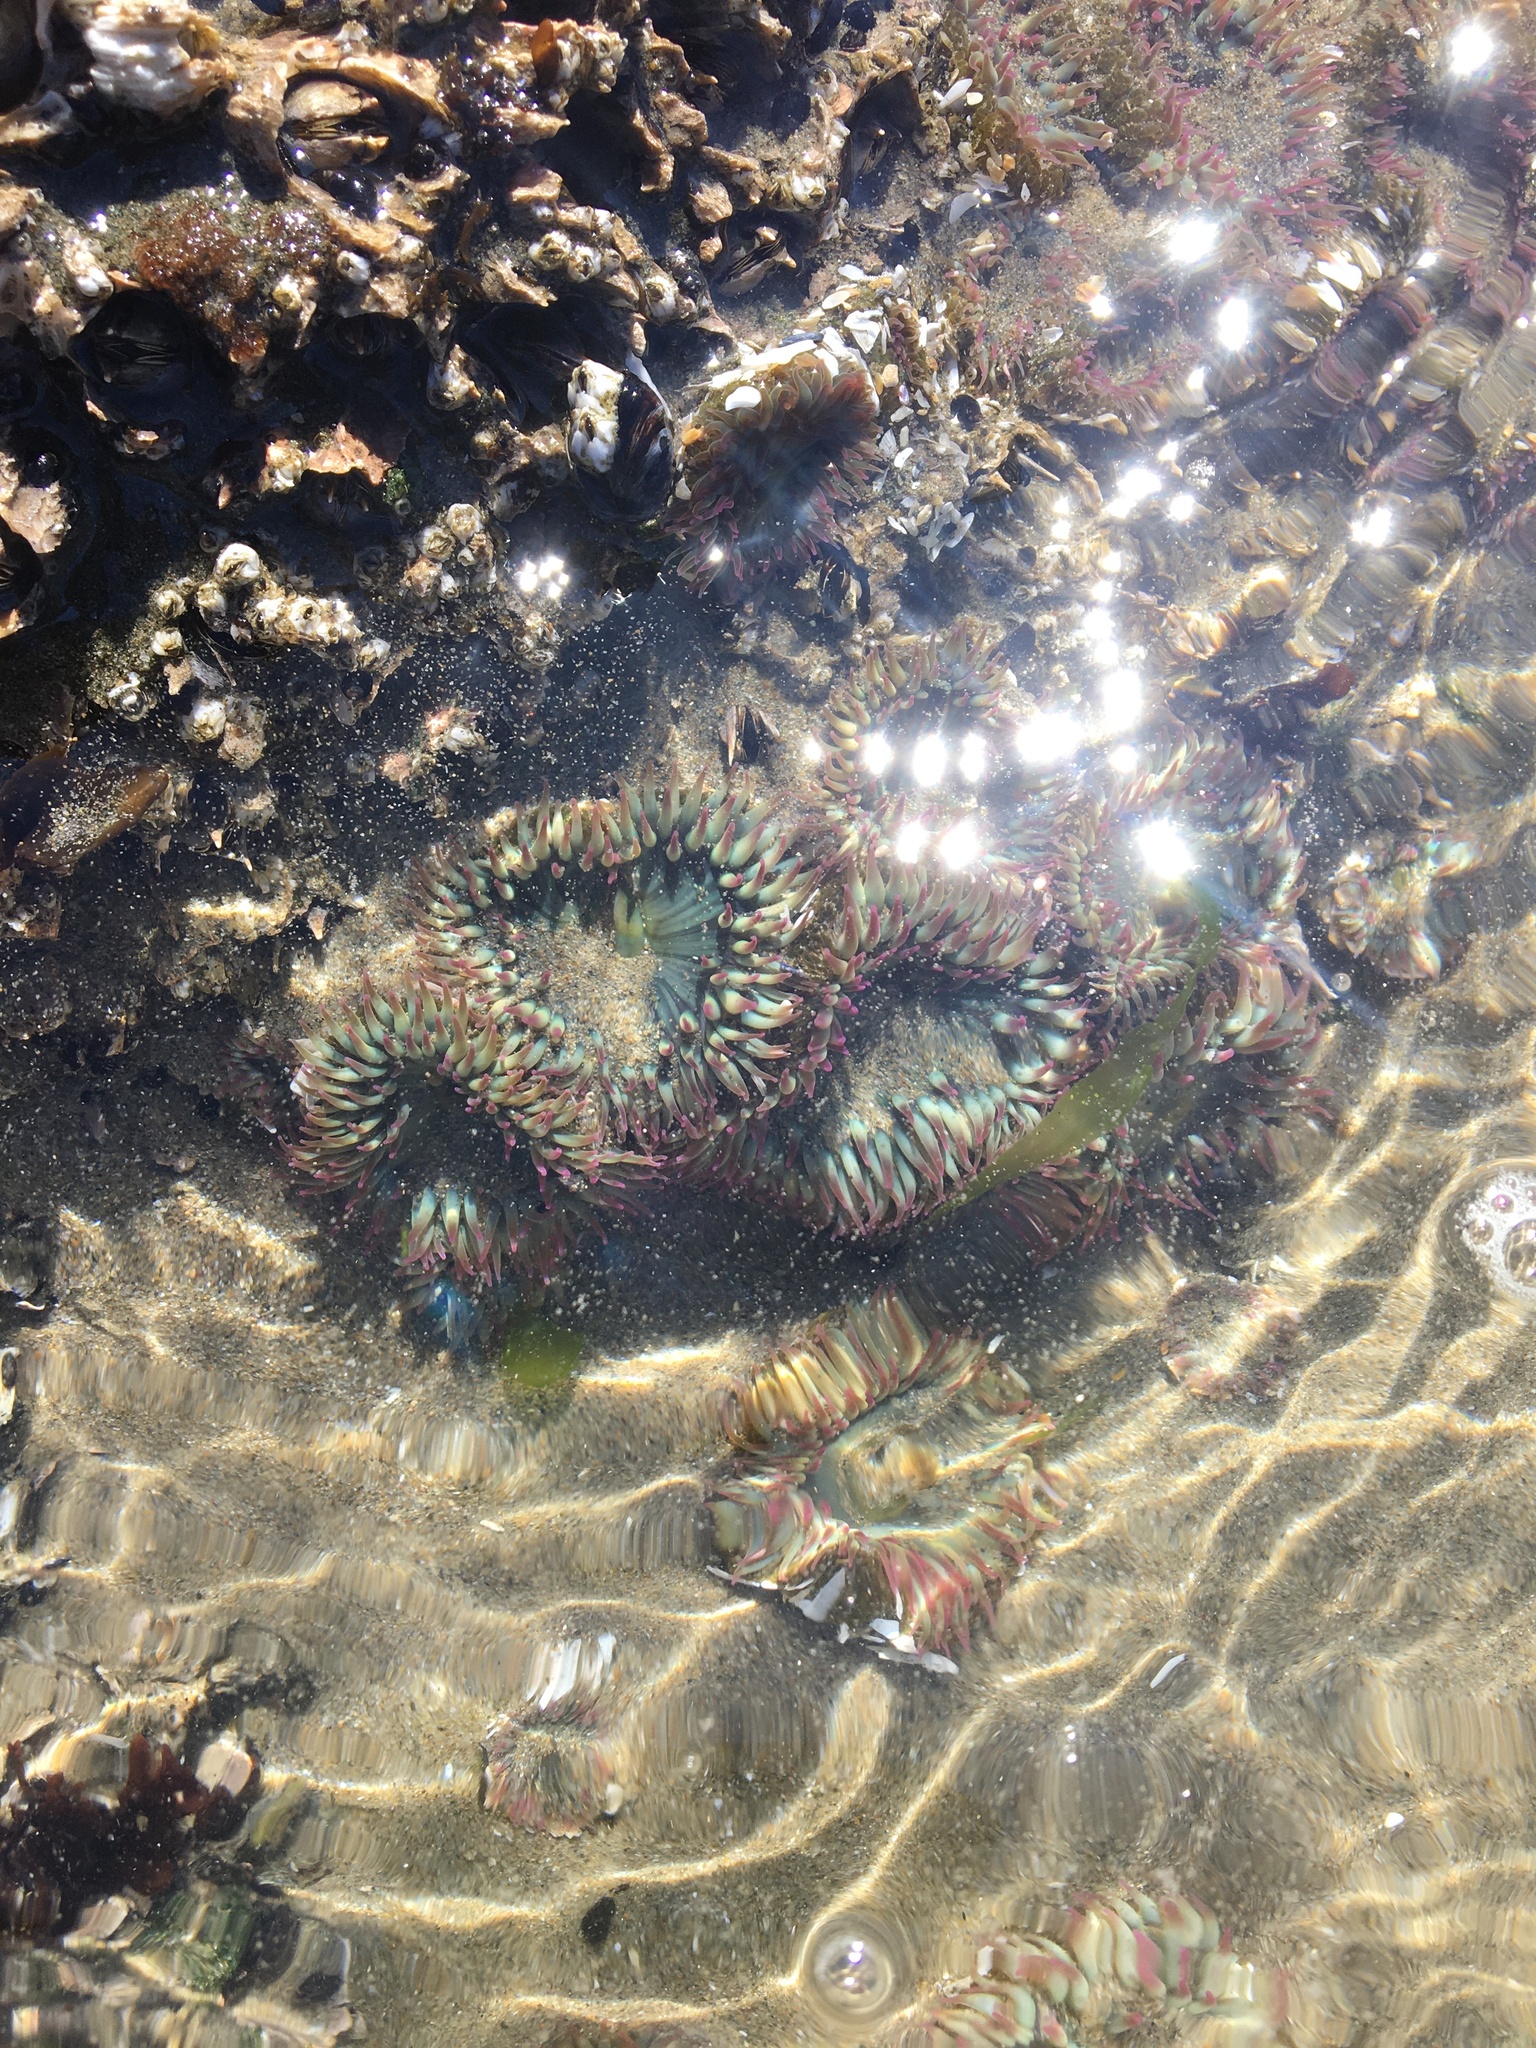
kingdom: Animalia
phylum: Cnidaria
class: Anthozoa
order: Actiniaria
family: Actiniidae
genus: Anthopleura
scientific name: Anthopleura elegantissima
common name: Clonal anemone
